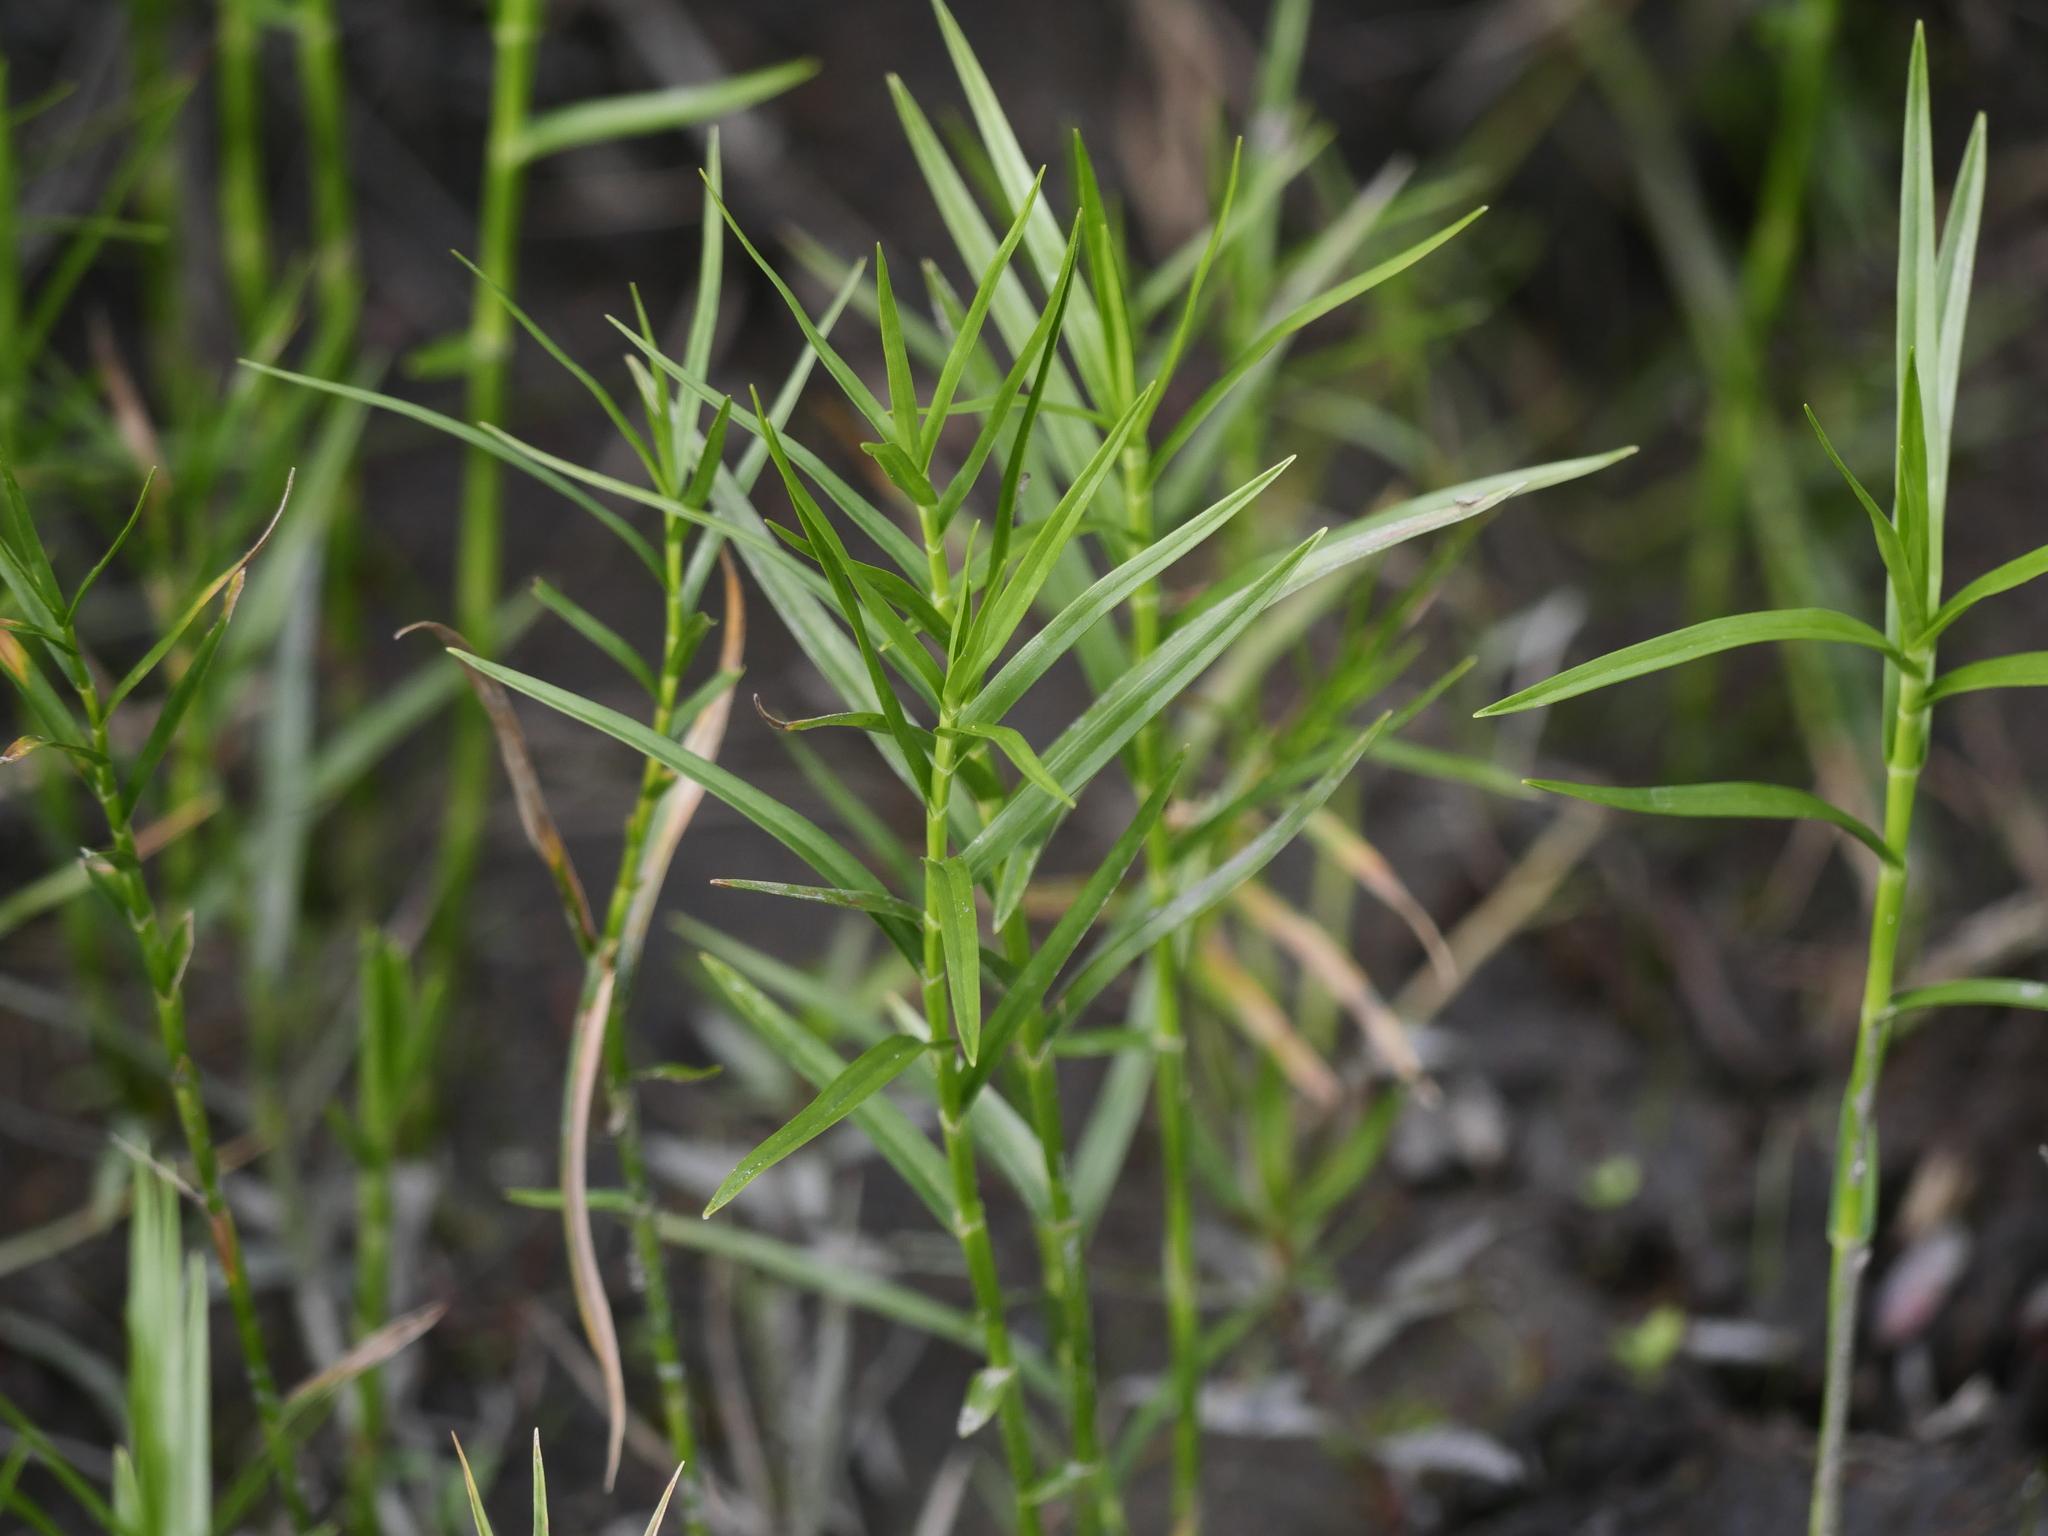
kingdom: Plantae
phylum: Tracheophyta
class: Liliopsida
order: Poales
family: Cyperaceae
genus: Dulichium
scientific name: Dulichium arundinaceum
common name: Three-way sedge
